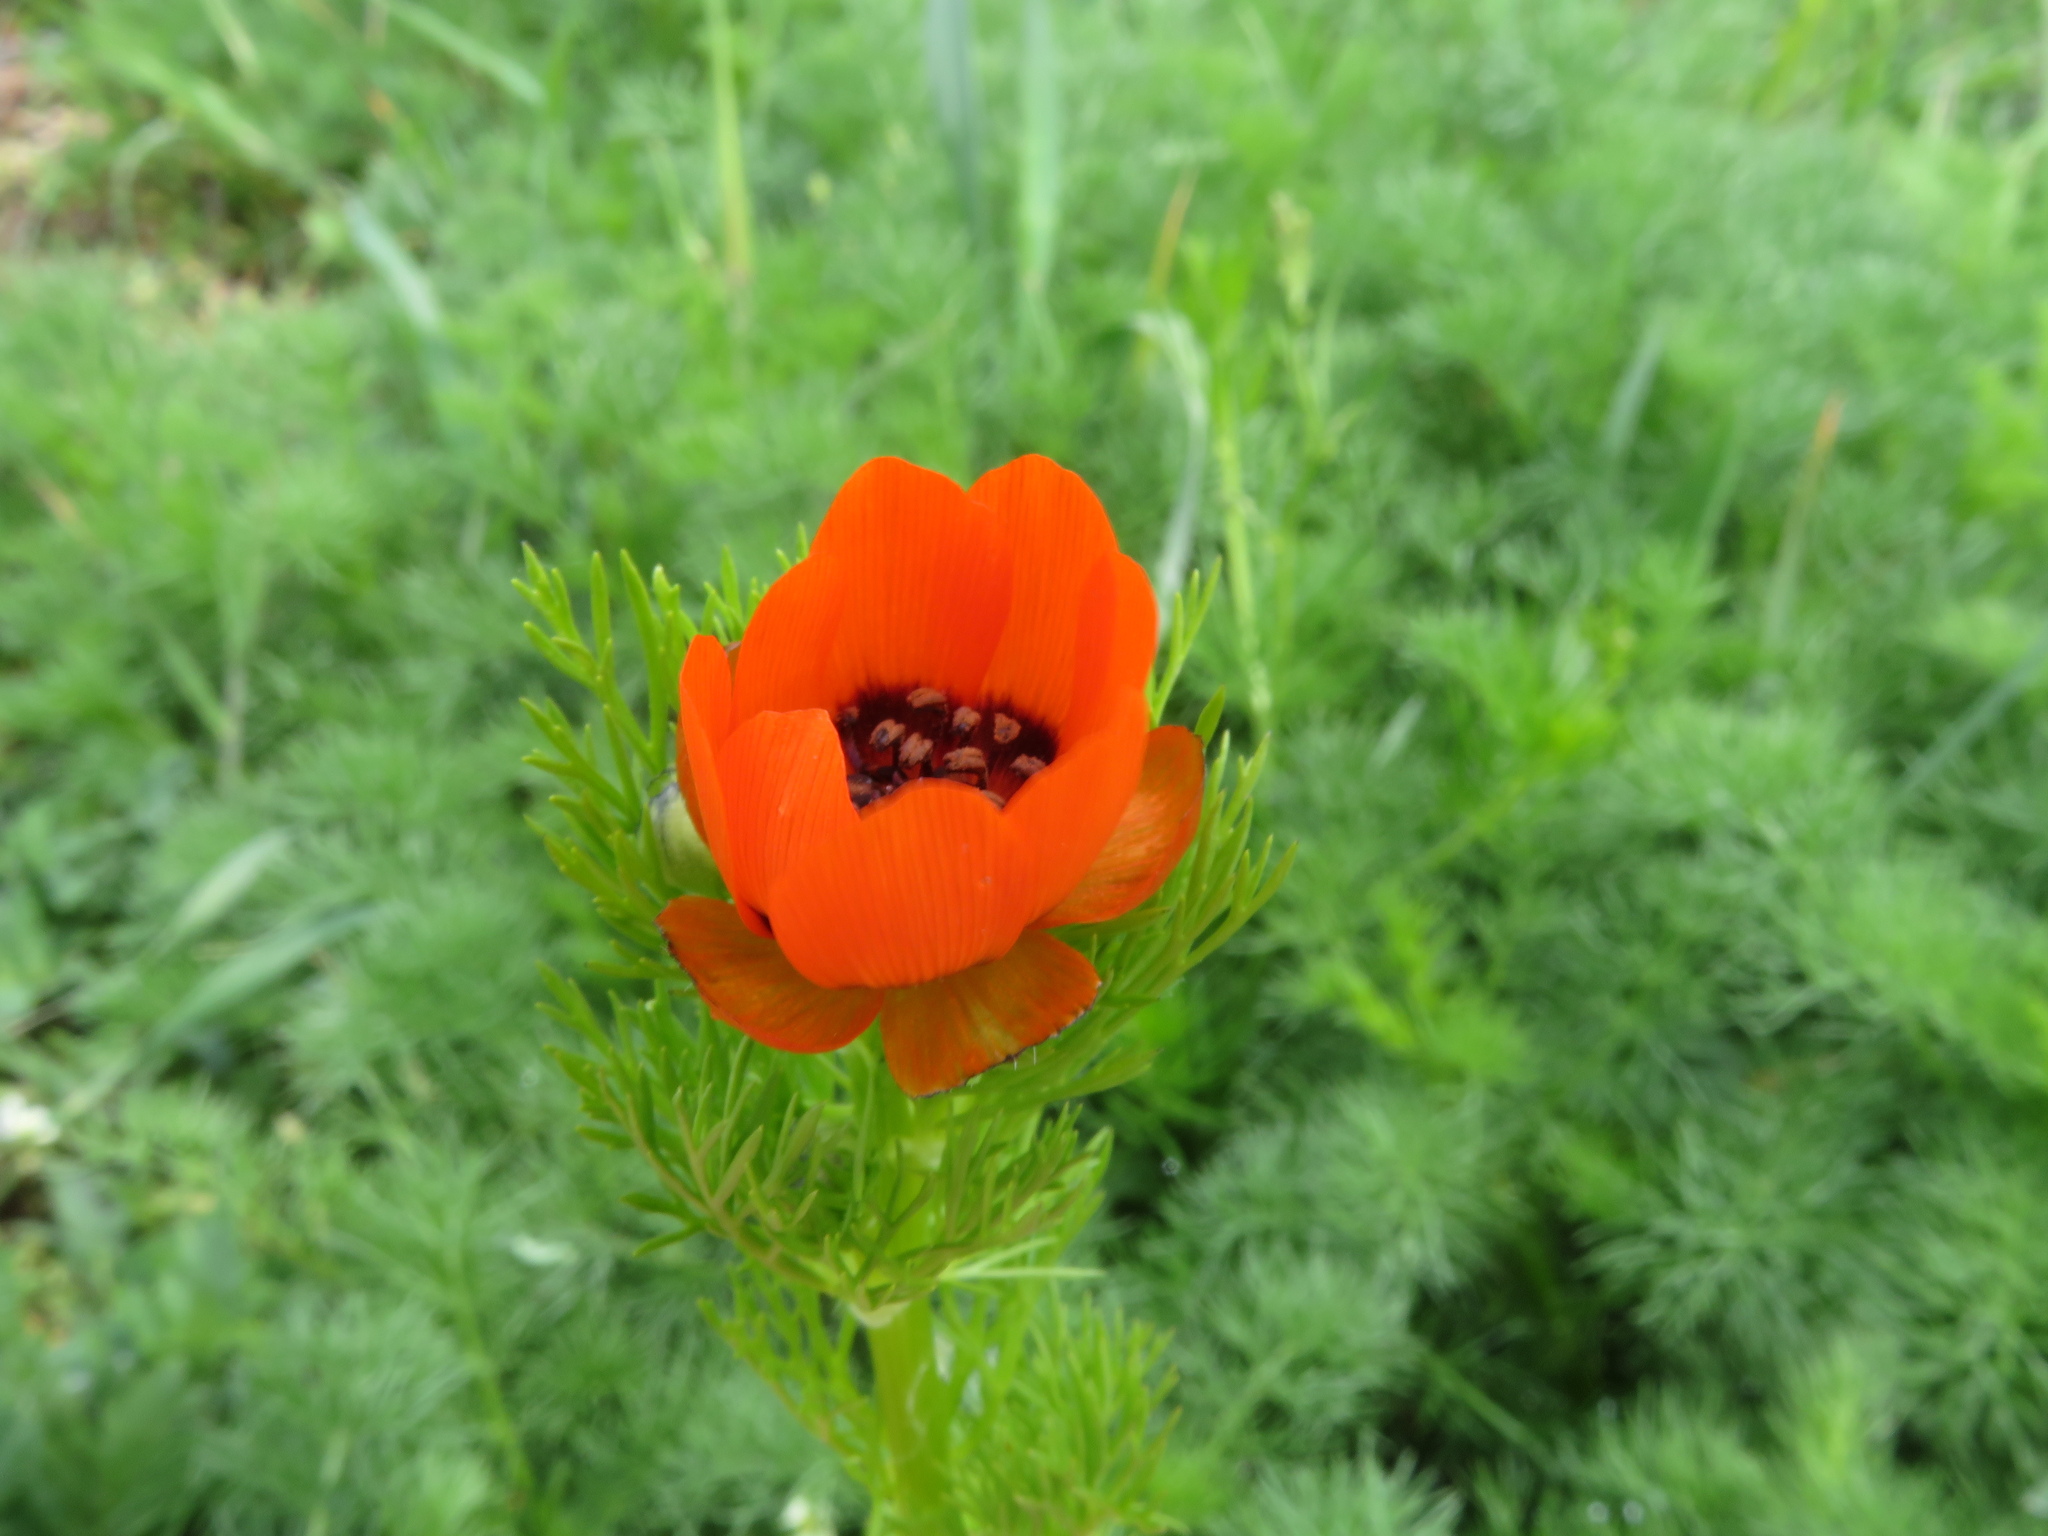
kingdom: Plantae
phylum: Tracheophyta
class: Magnoliopsida
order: Ranunculales
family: Ranunculaceae
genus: Adonis
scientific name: Adonis aestivalis
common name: Summer pheasant's-eye
